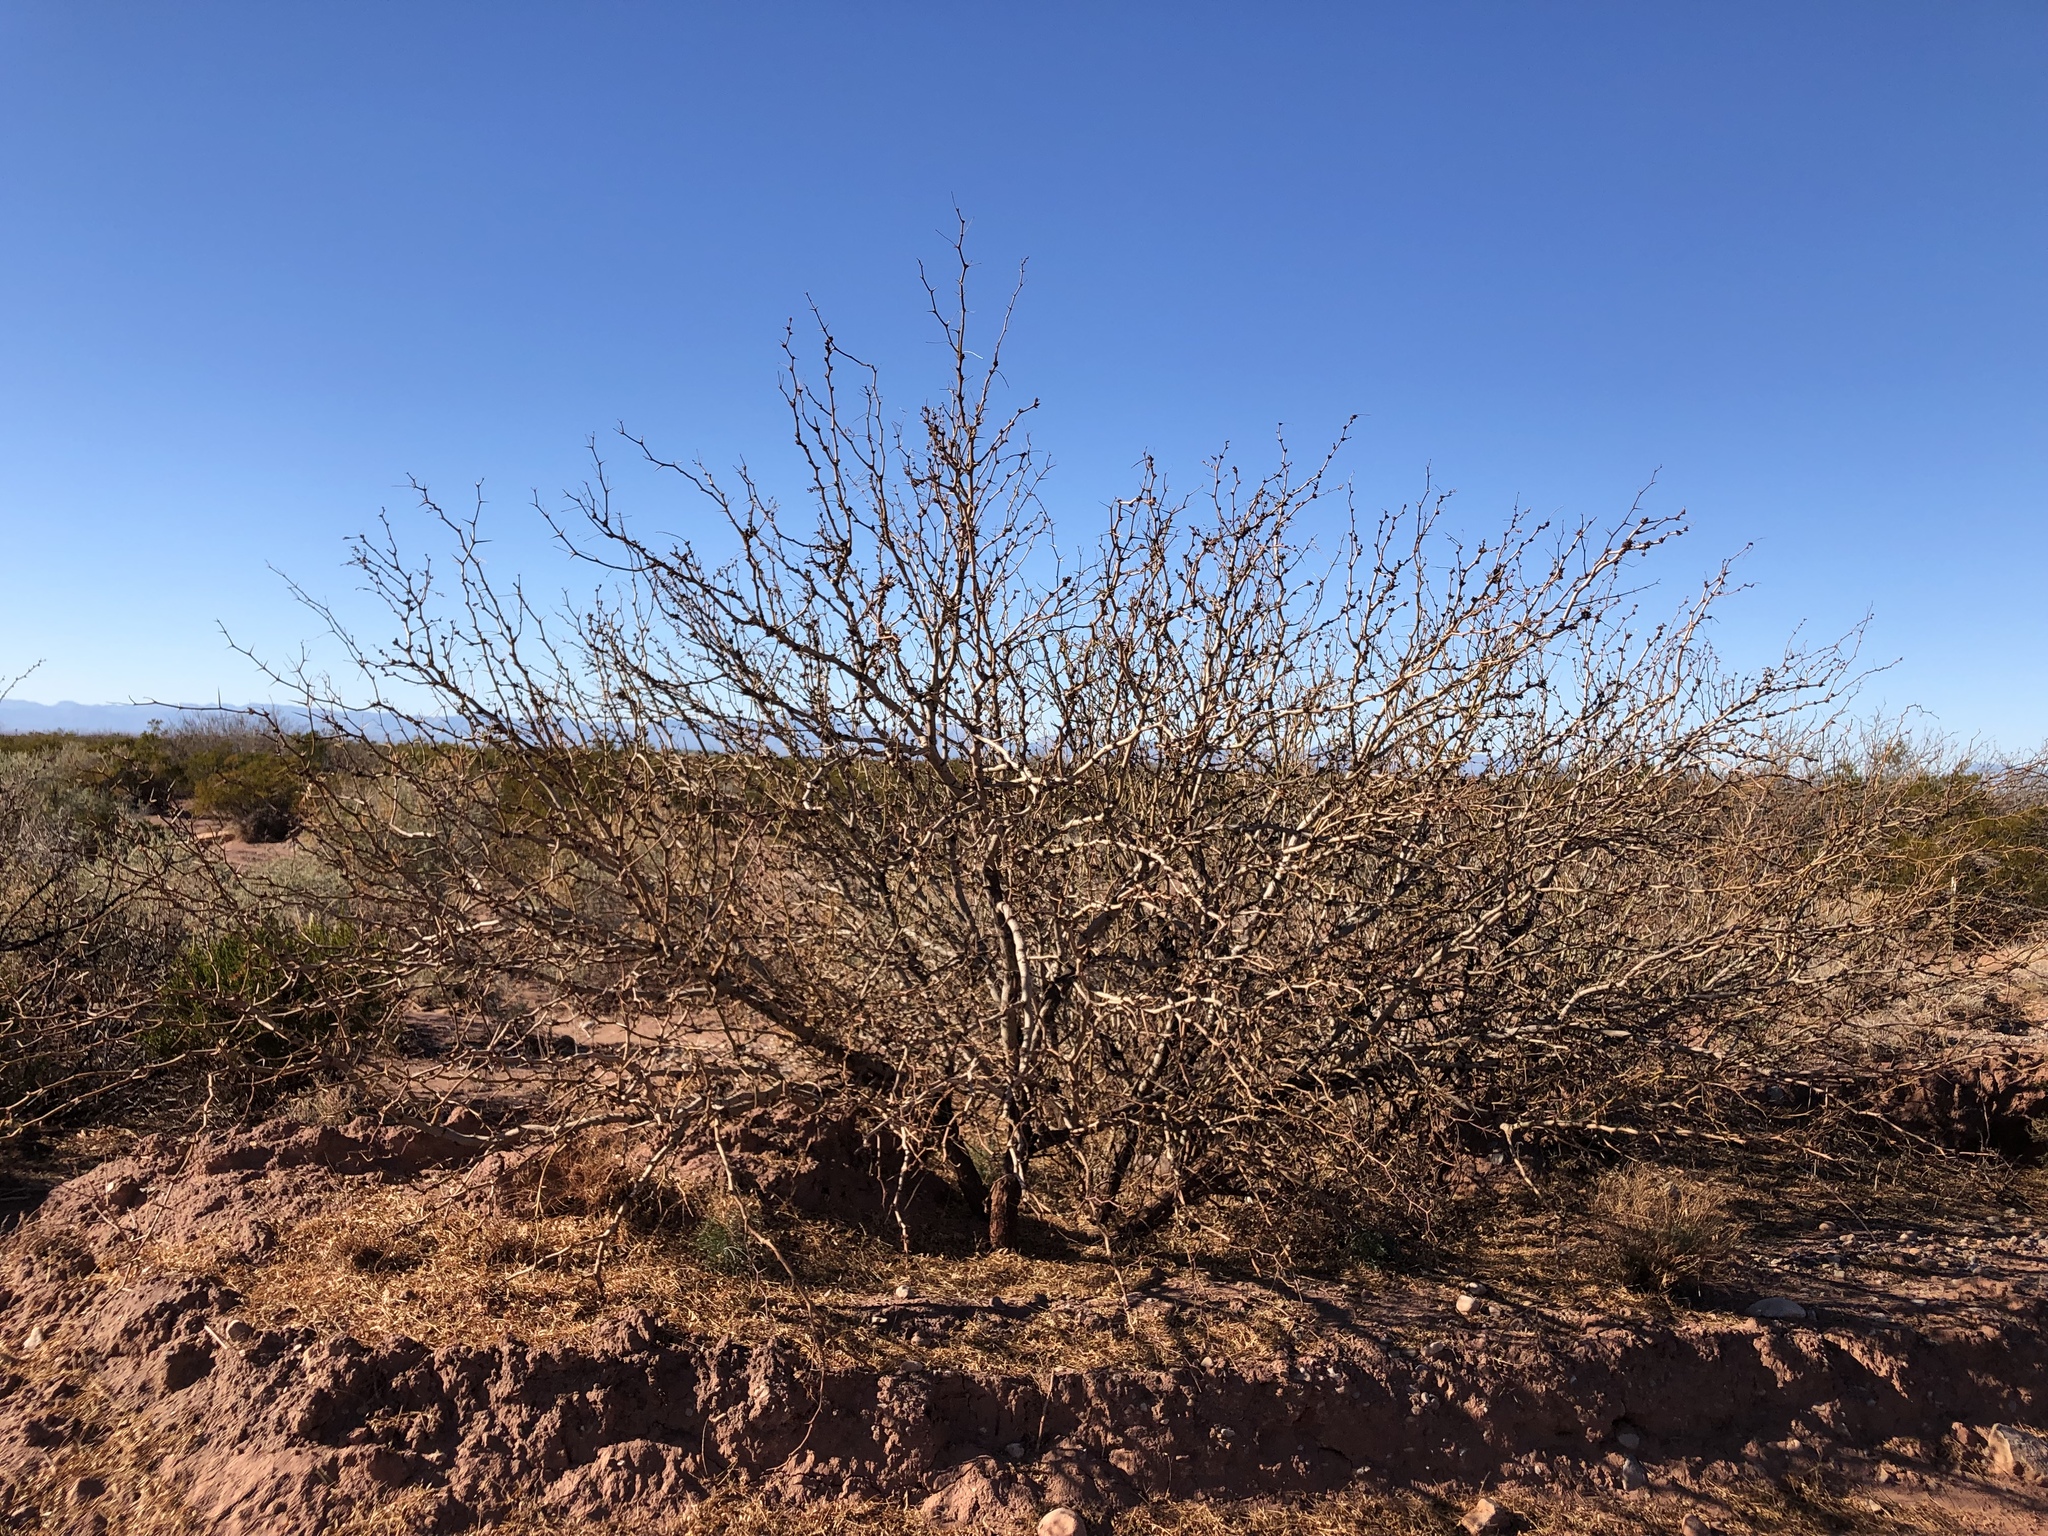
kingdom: Plantae
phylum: Tracheophyta
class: Magnoliopsida
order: Fabales
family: Fabaceae
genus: Prosopis
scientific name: Prosopis glandulosa
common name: Honey mesquite
